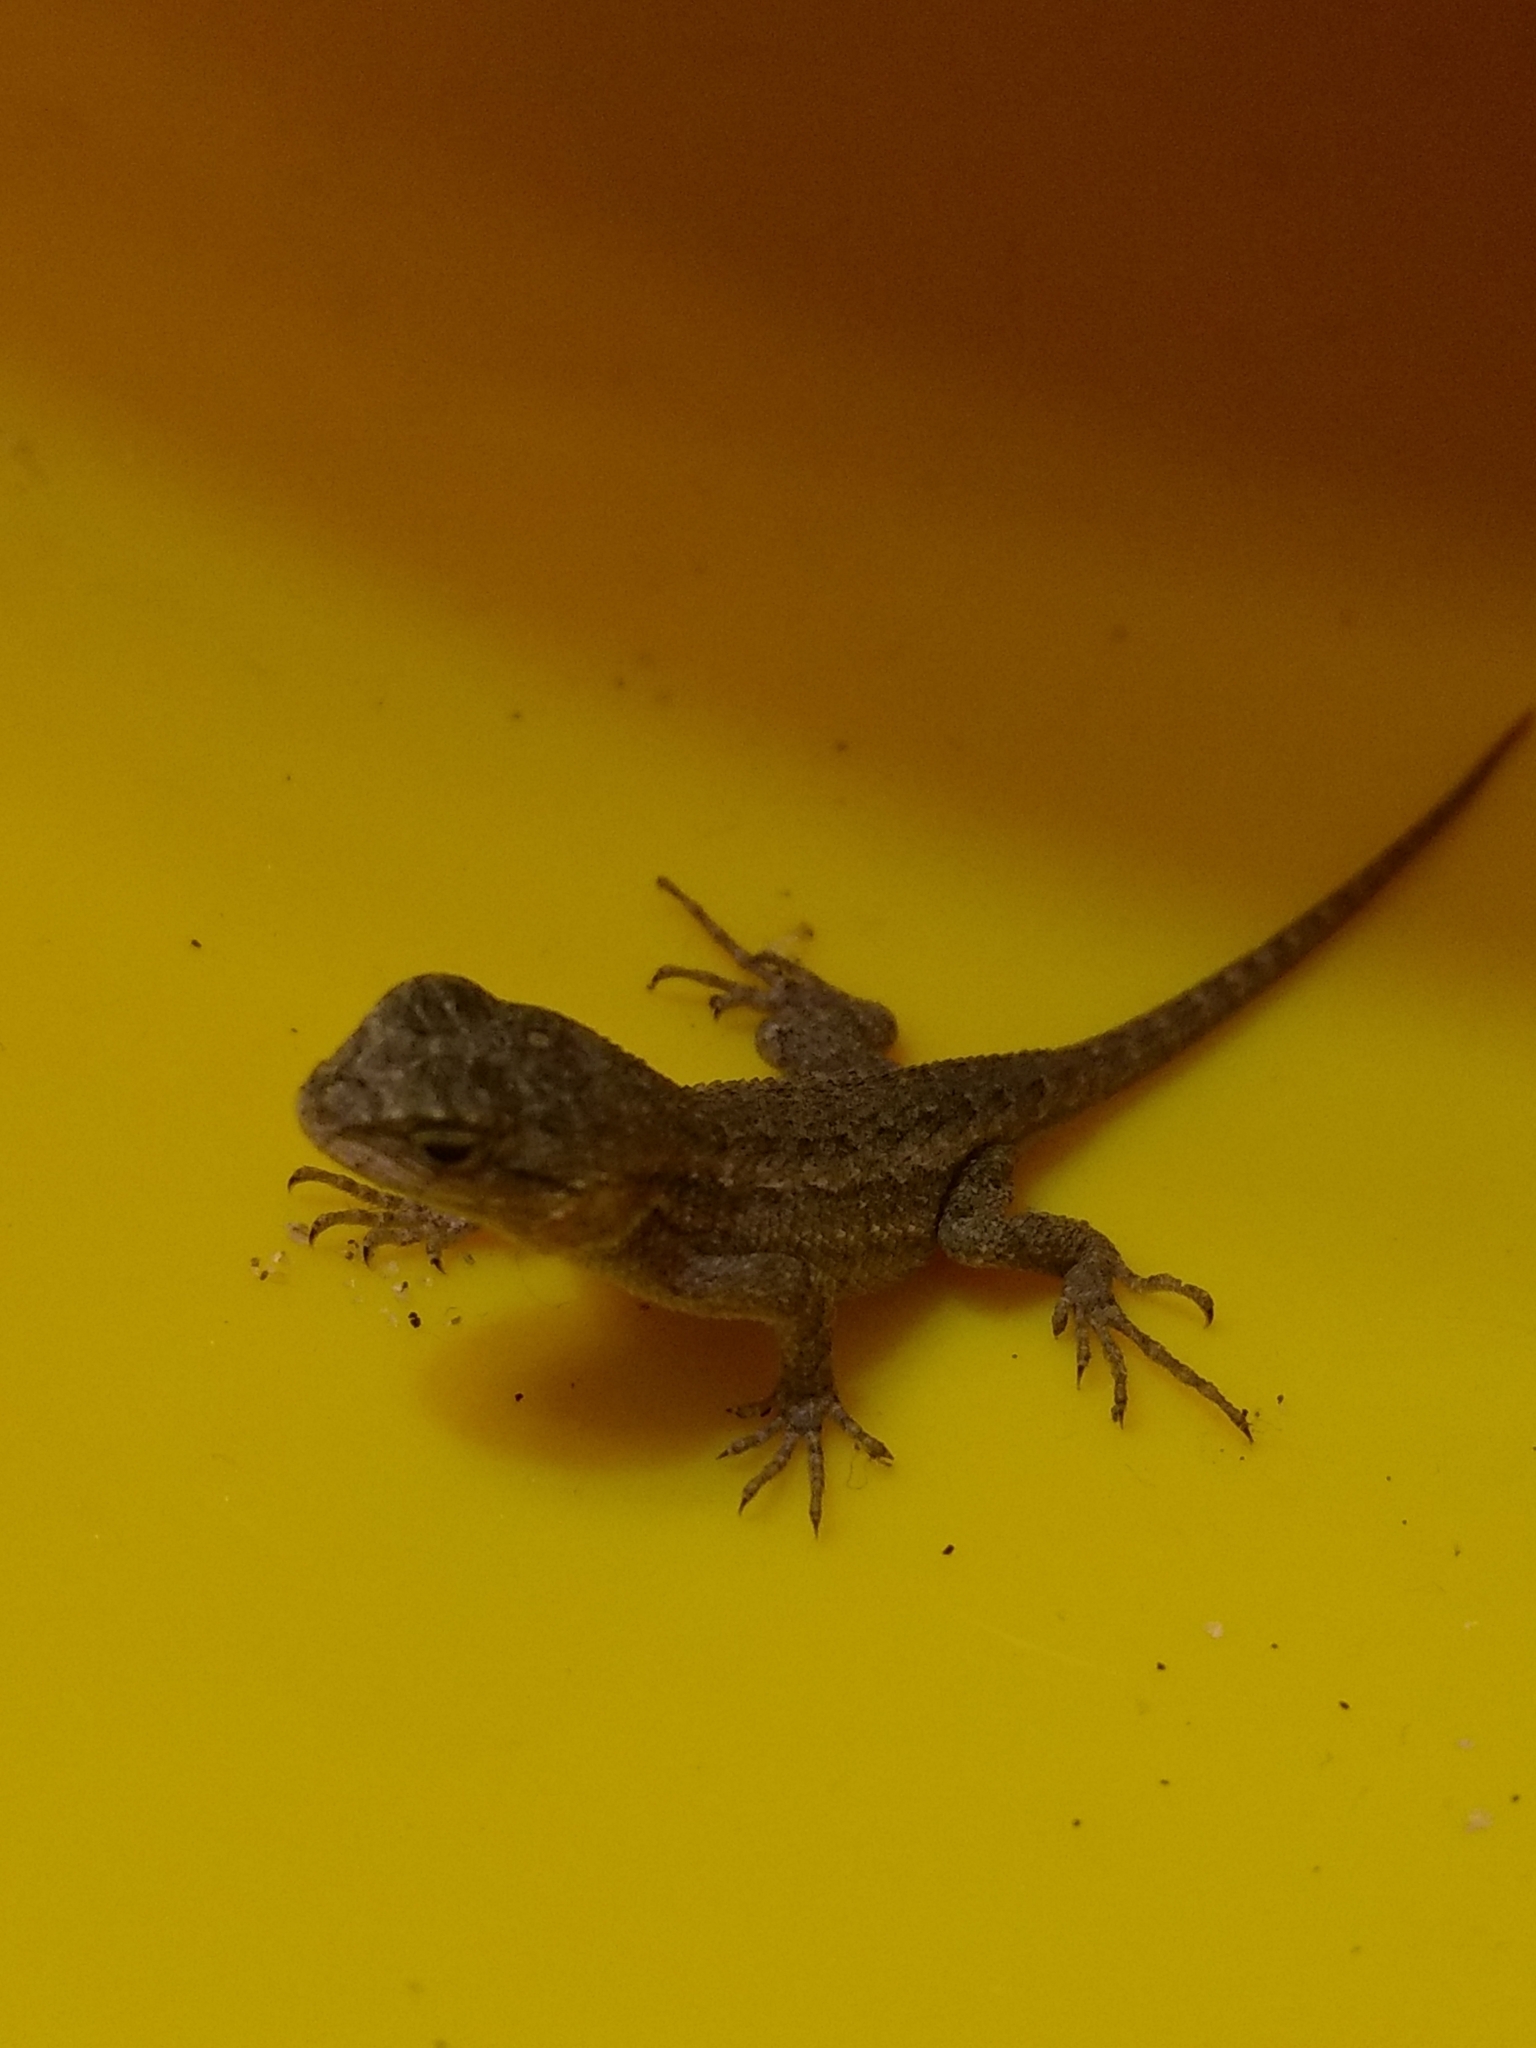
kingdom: Animalia
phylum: Chordata
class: Squamata
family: Phrynosomatidae
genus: Sceloporus
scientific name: Sceloporus occidentalis
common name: Western fence lizard
